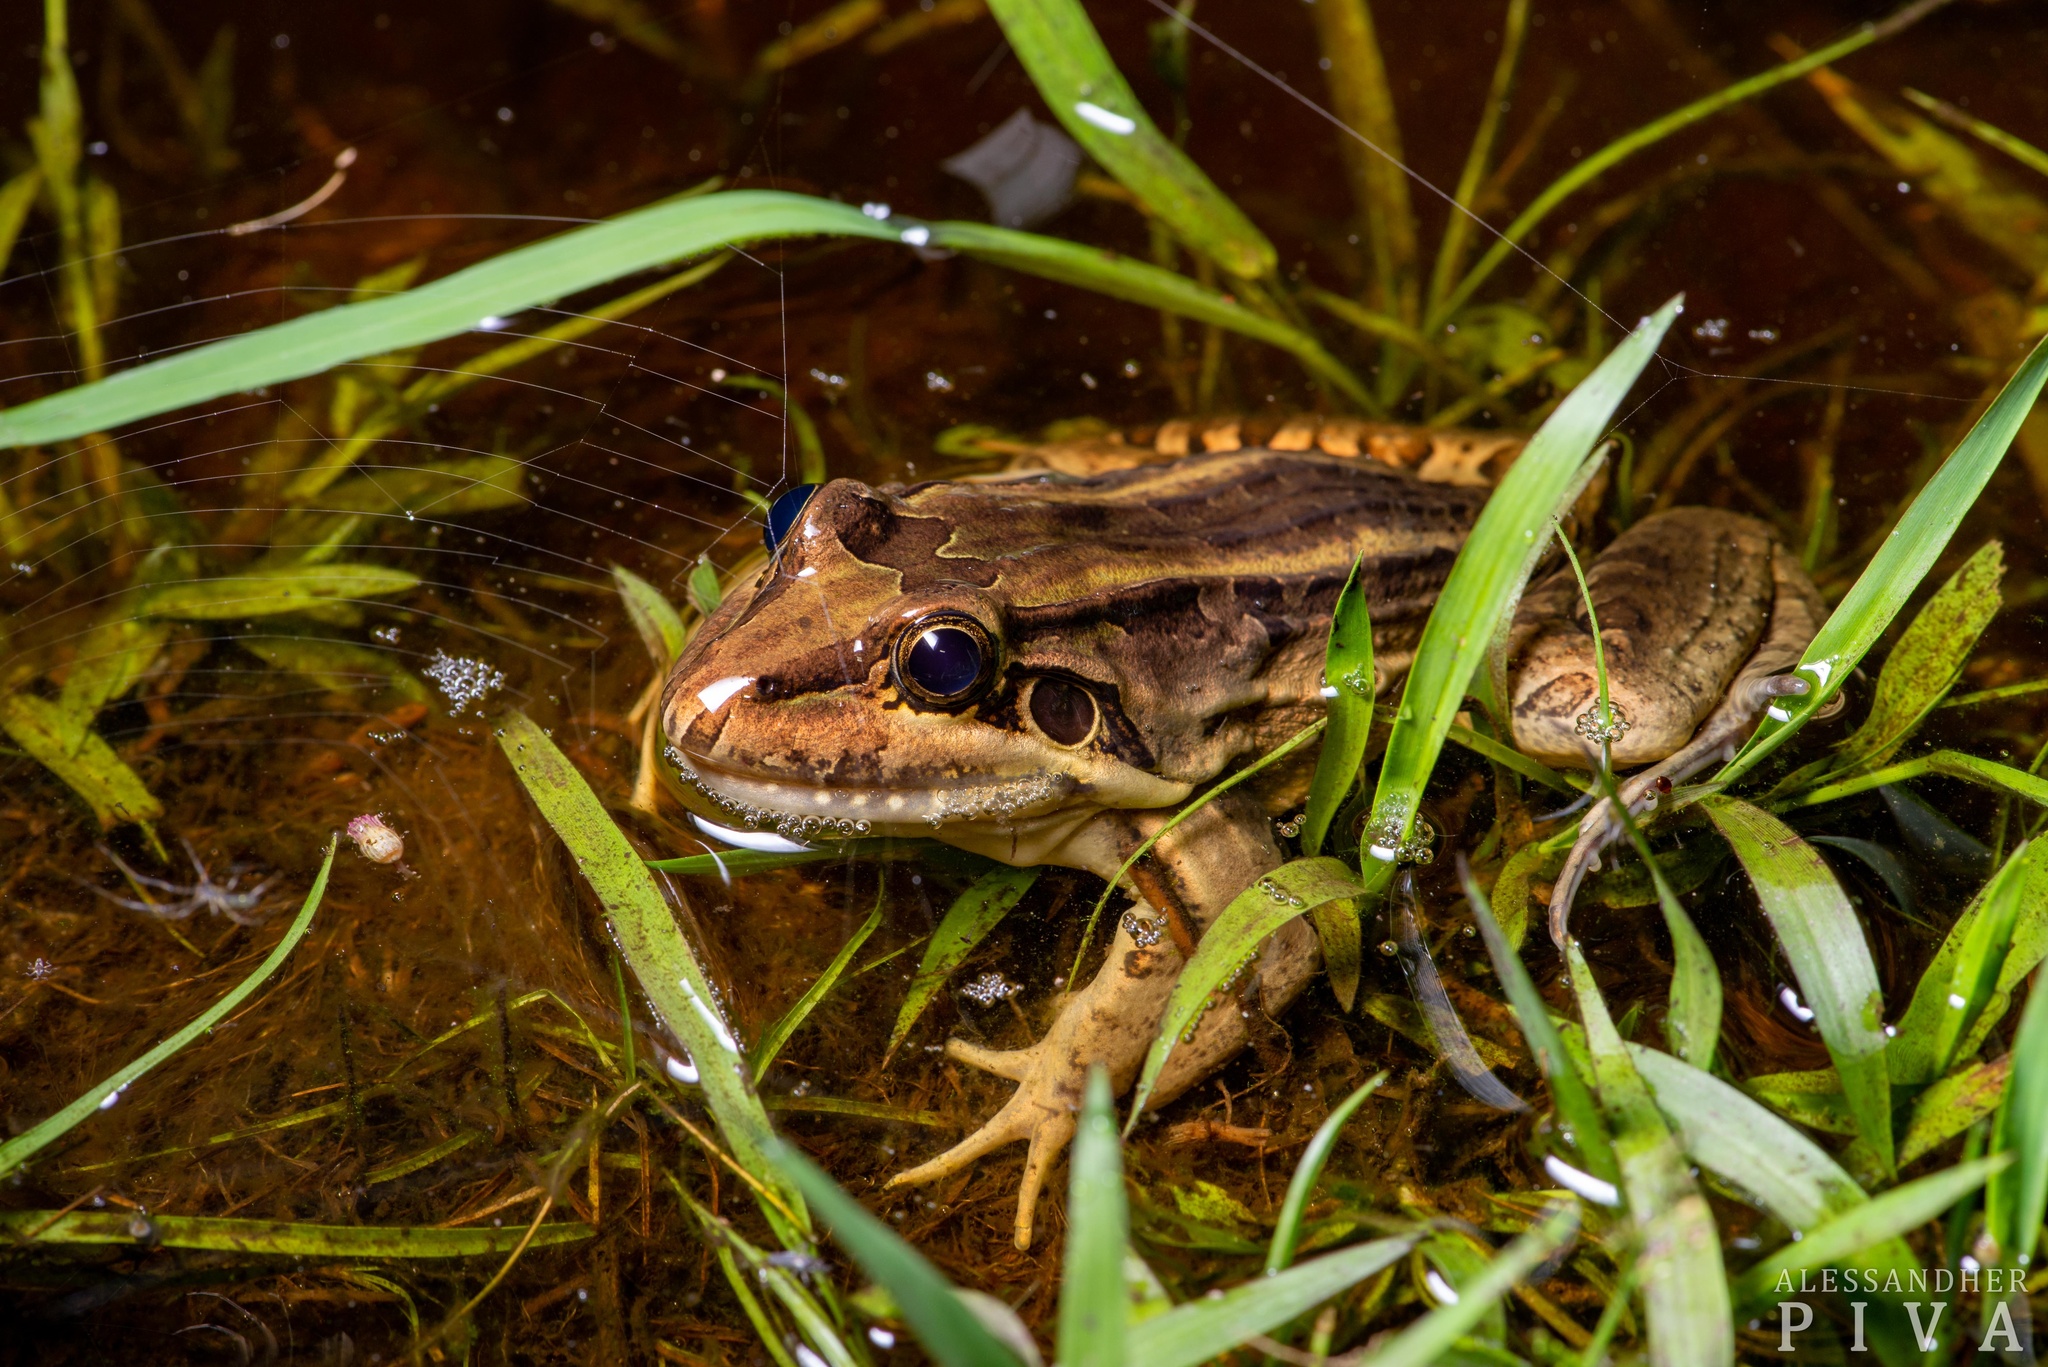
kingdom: Animalia
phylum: Chordata
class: Amphibia
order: Anura
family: Leptodactylidae
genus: Leptodactylus
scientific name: Leptodactylus paranaru
